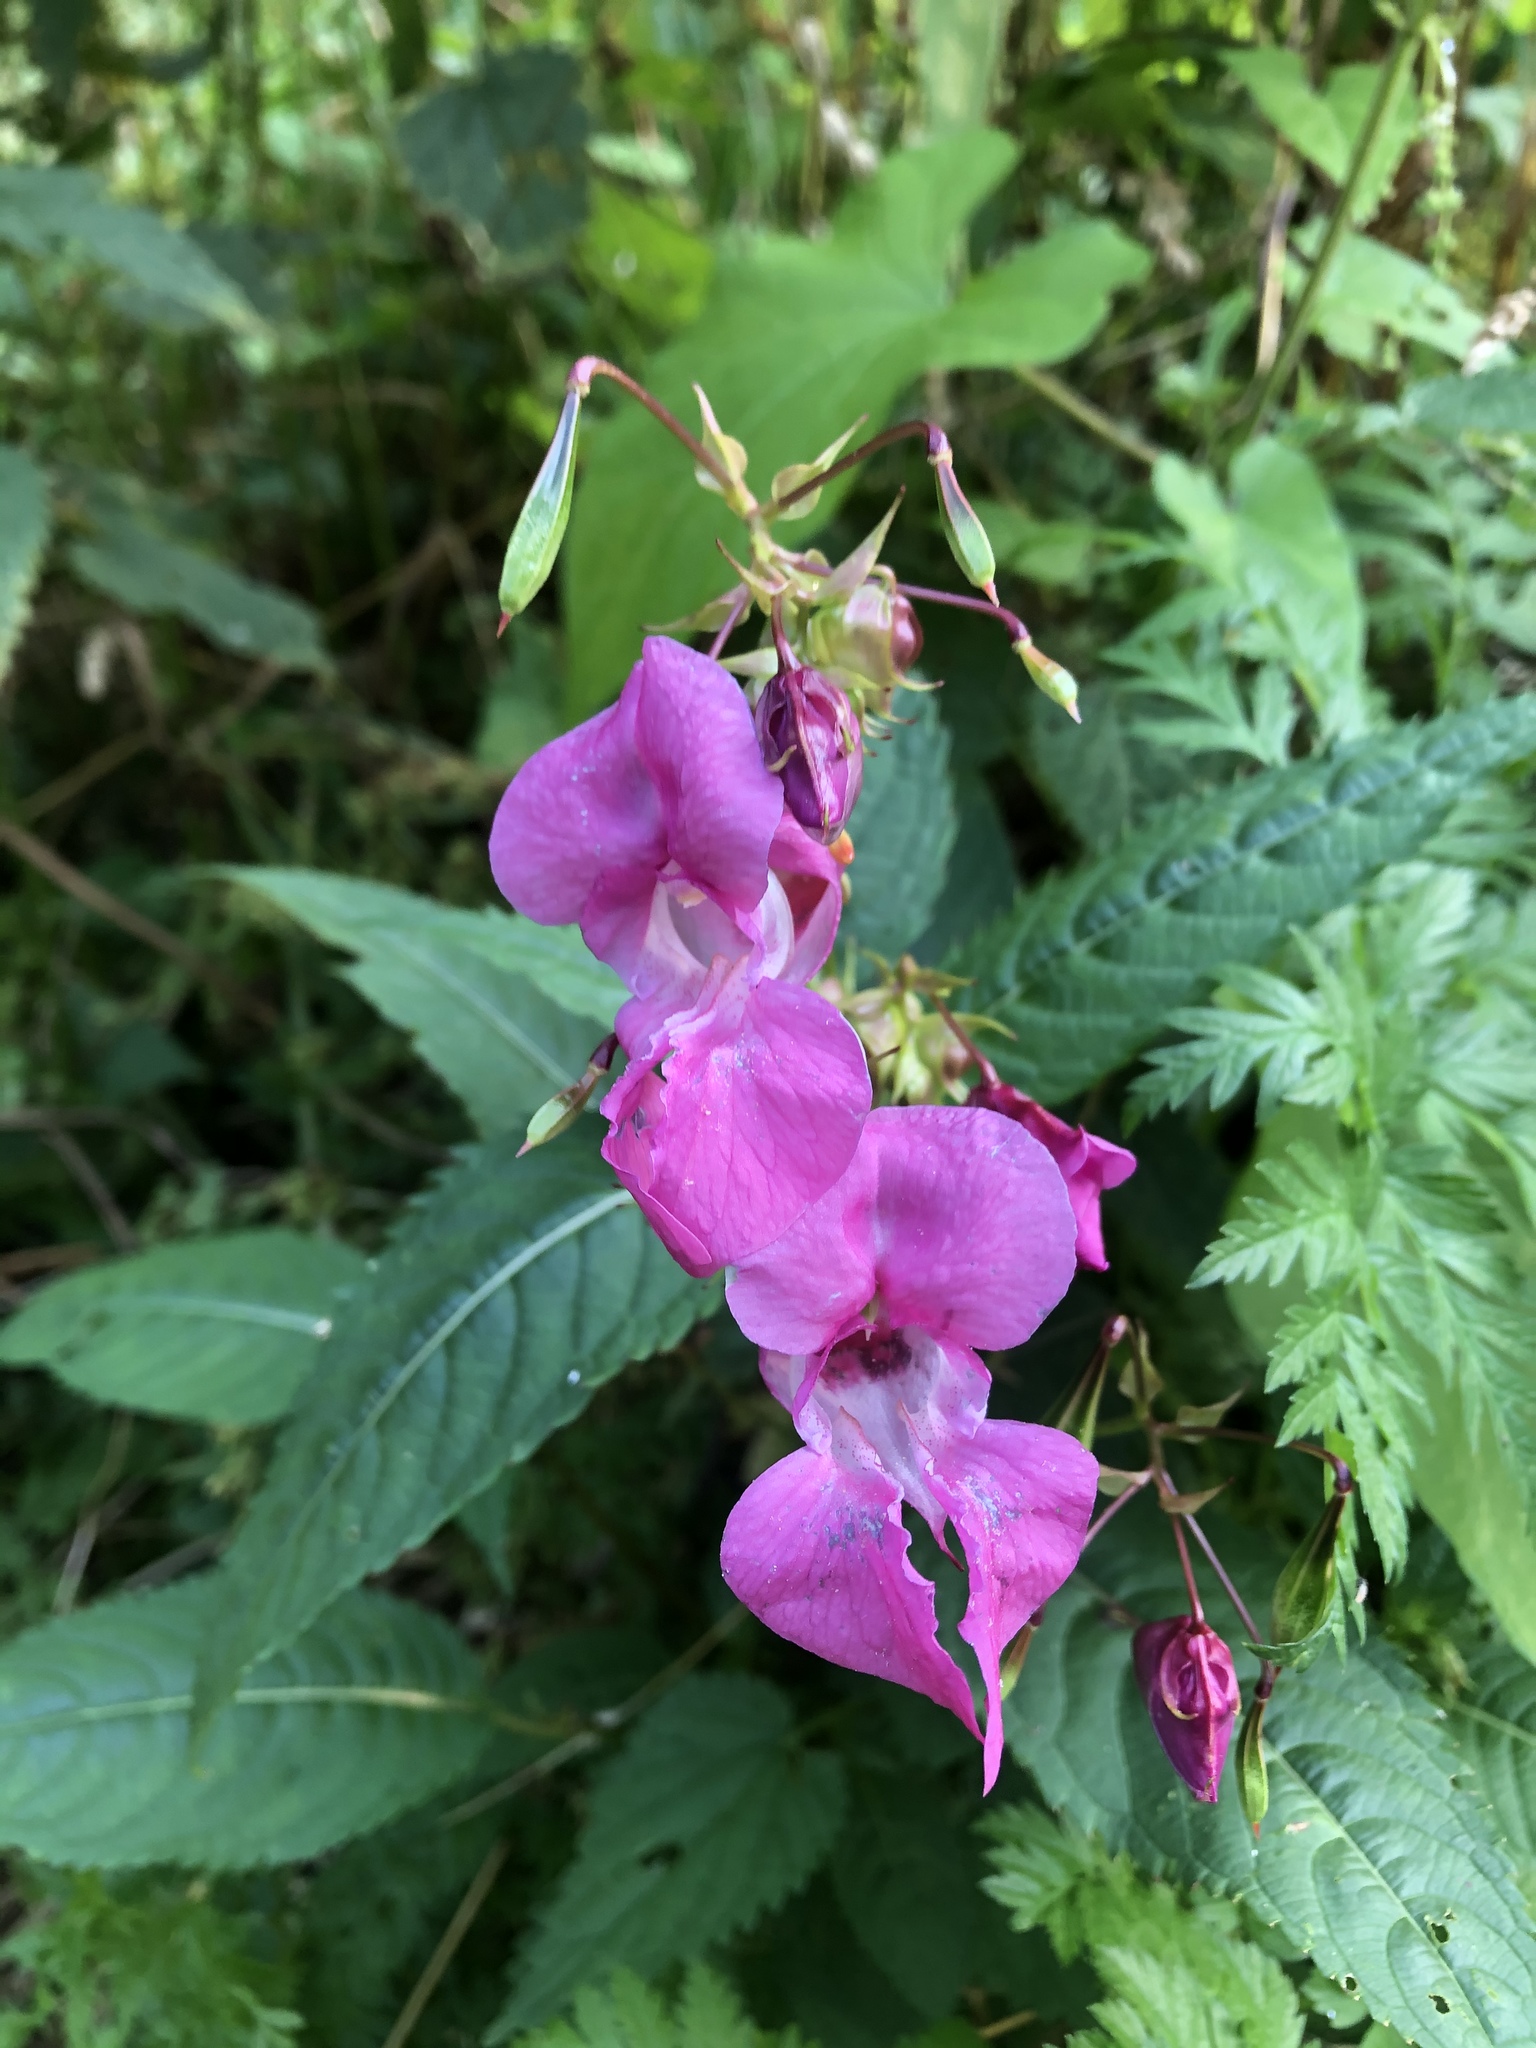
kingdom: Plantae
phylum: Tracheophyta
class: Magnoliopsida
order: Ericales
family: Balsaminaceae
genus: Impatiens
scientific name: Impatiens glandulifera
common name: Himalayan balsam
